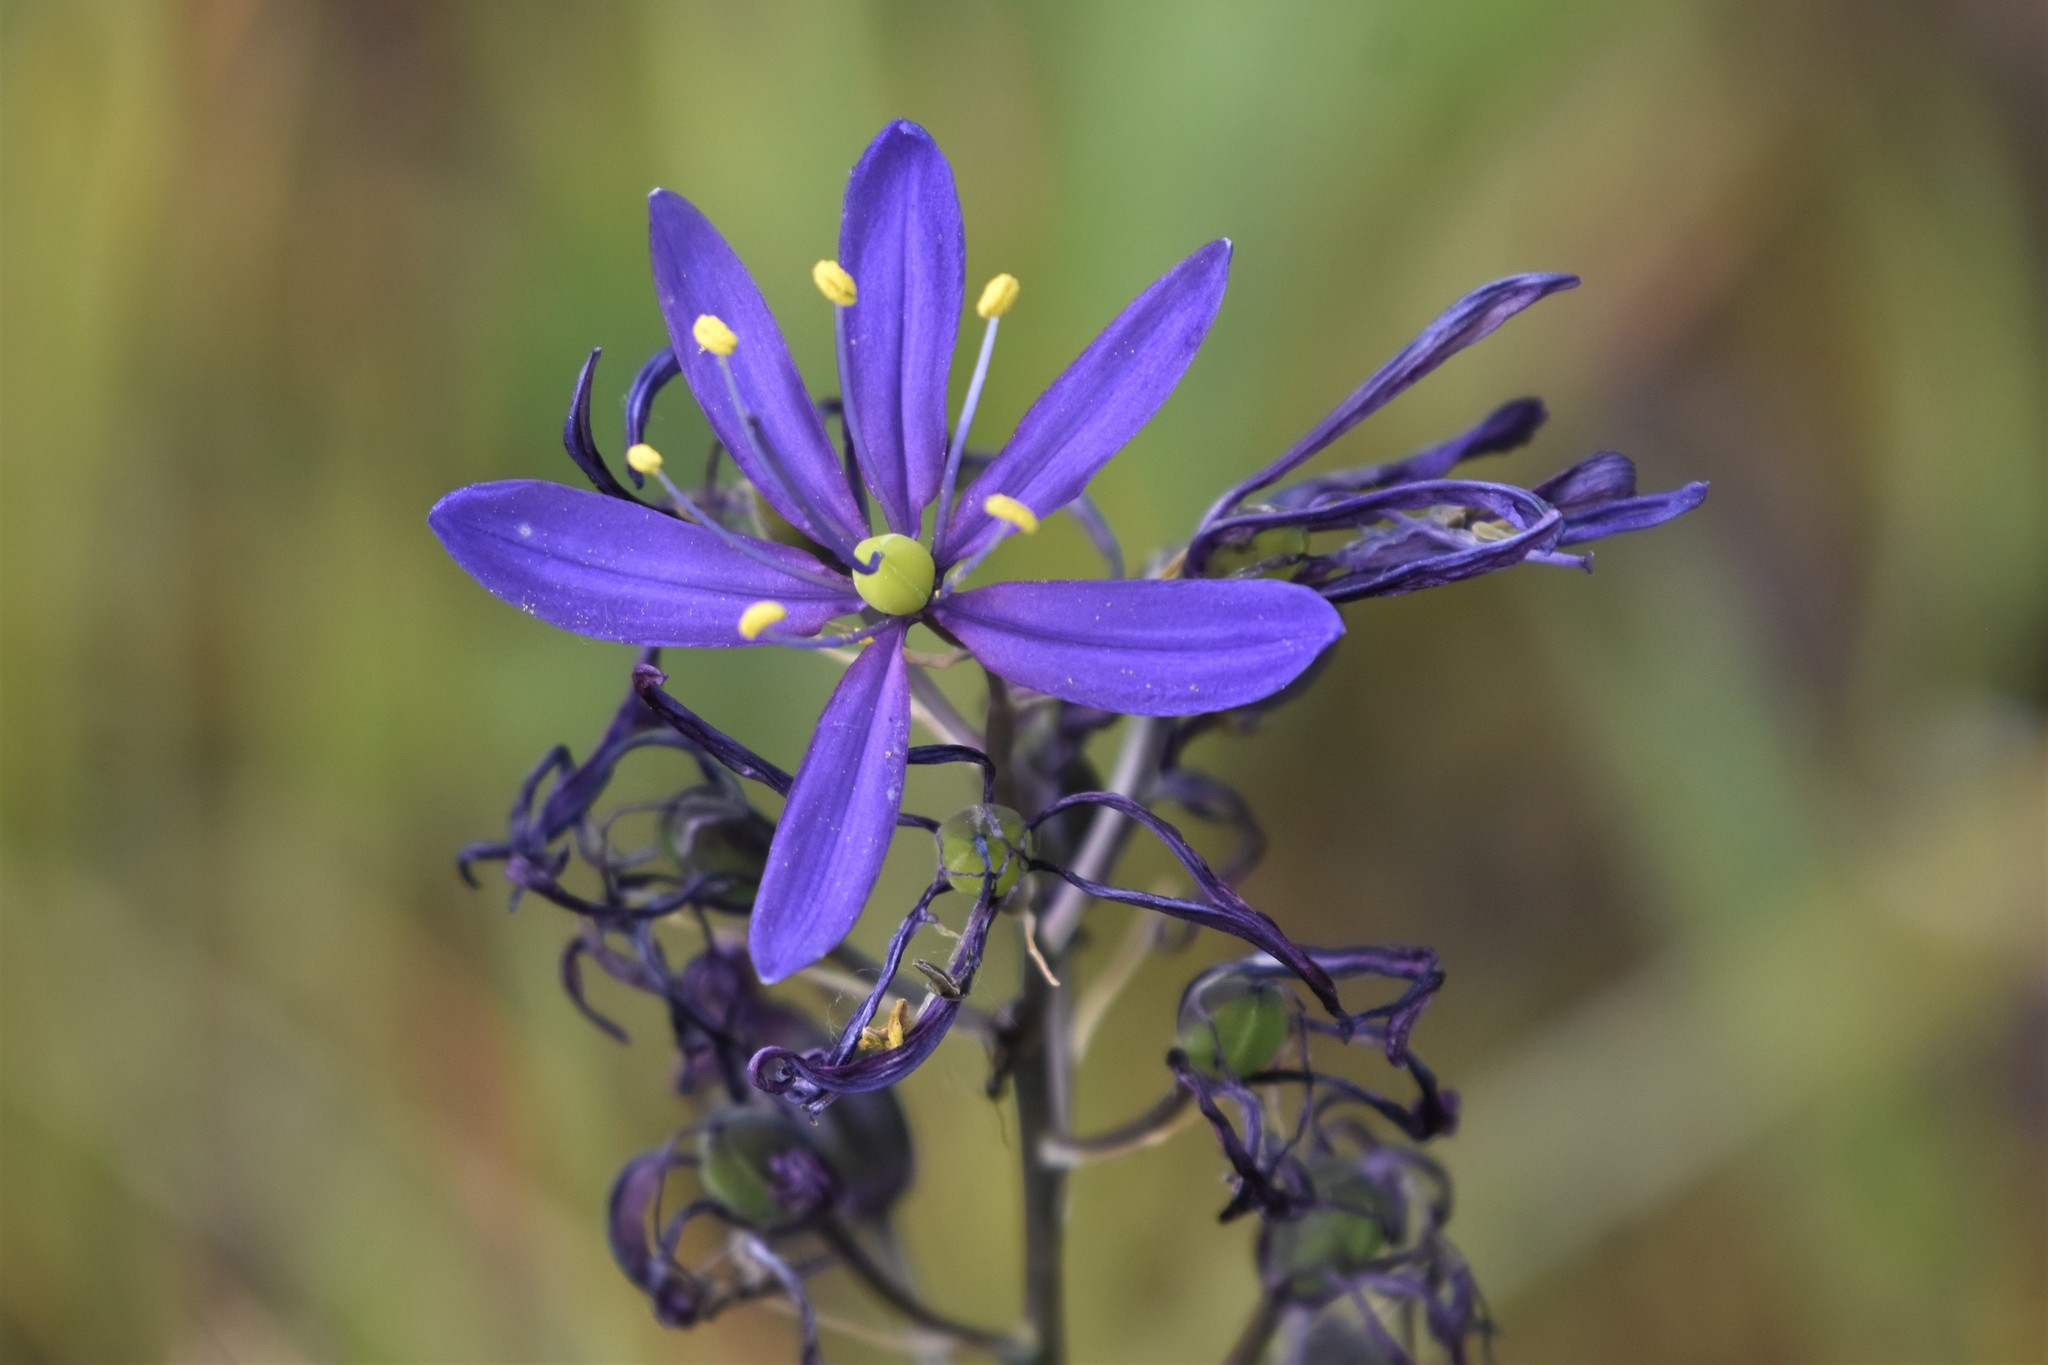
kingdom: Plantae
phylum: Tracheophyta
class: Liliopsida
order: Asparagales
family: Asparagaceae
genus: Camassia
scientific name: Camassia quamash
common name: Common camas
